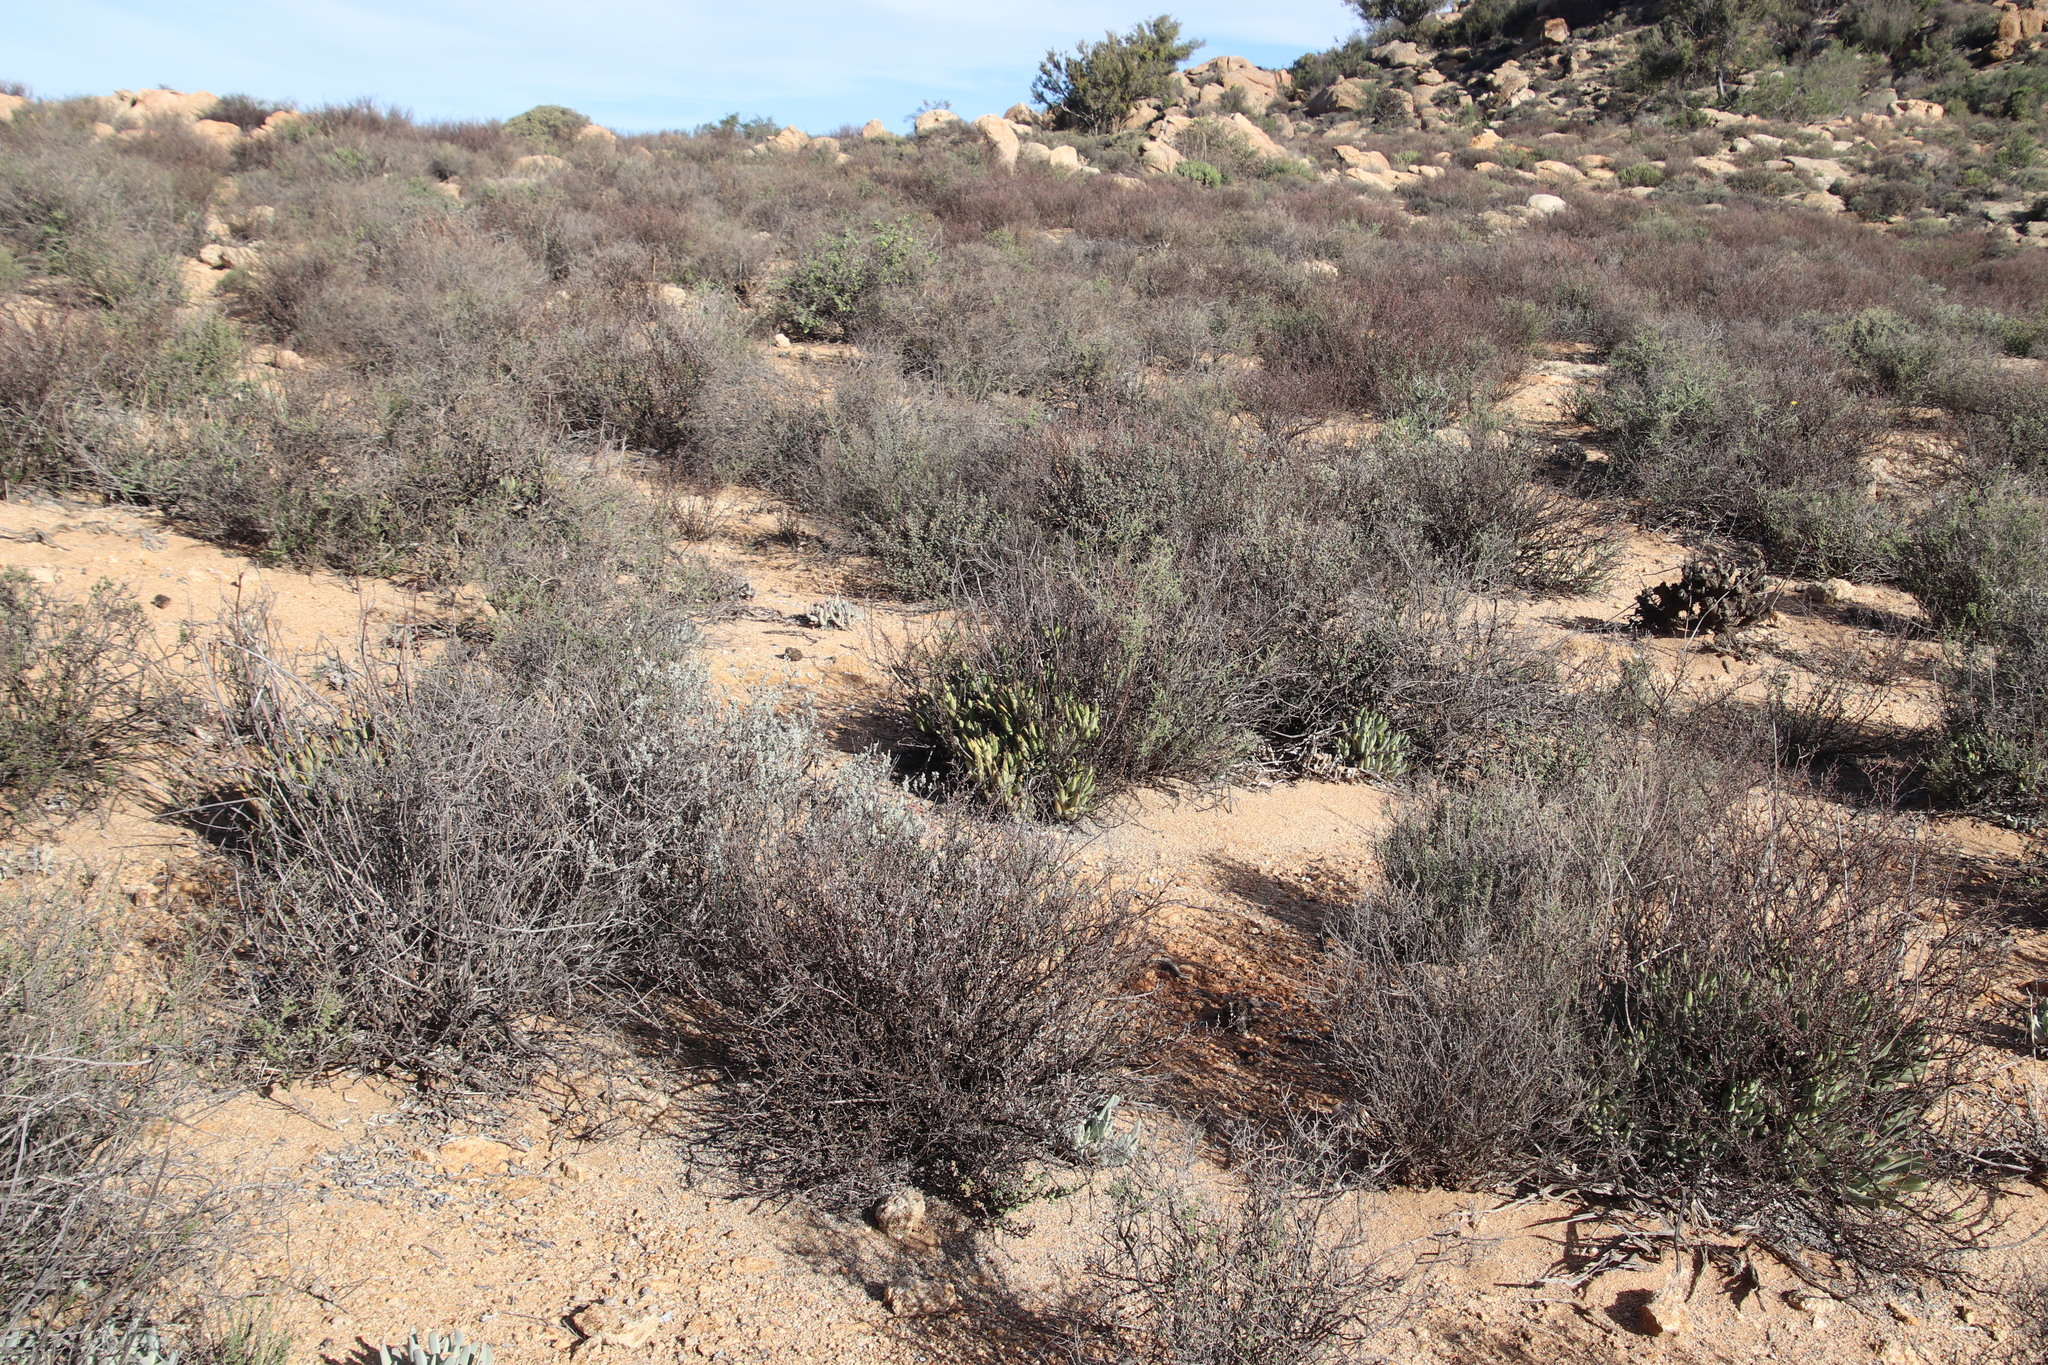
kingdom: Plantae
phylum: Tracheophyta
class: Magnoliopsida
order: Saxifragales
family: Crassulaceae
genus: Cotyledon
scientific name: Cotyledon orbiculata
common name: Pig's ear
